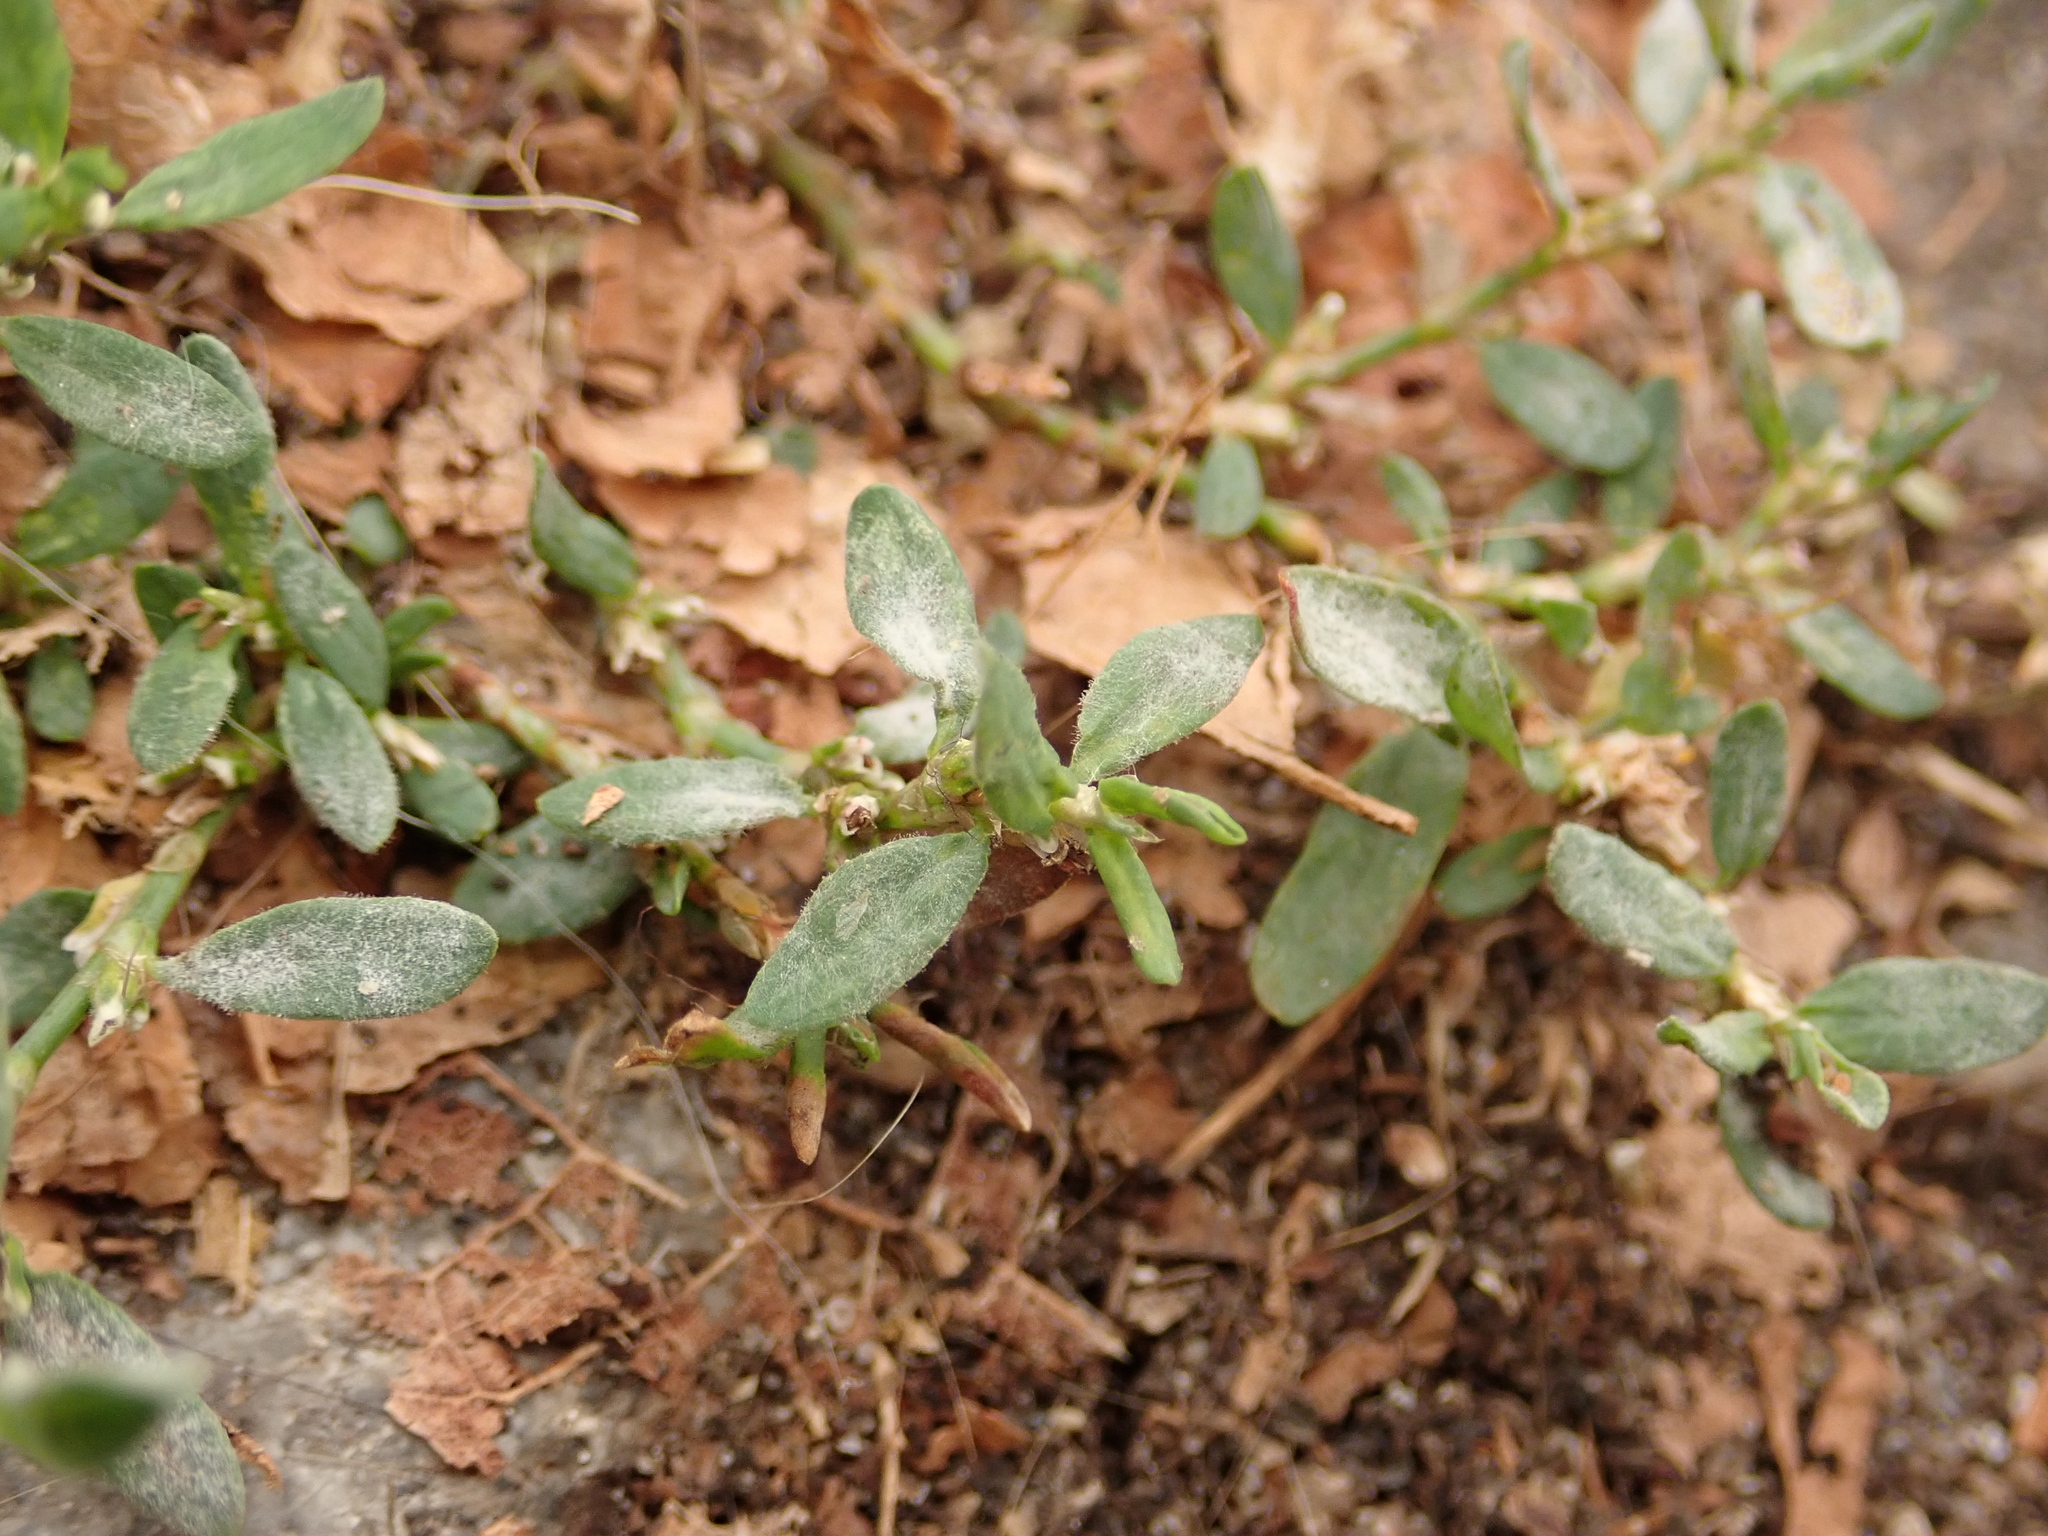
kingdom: Plantae
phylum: Tracheophyta
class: Magnoliopsida
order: Caryophyllales
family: Polygonaceae
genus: Polygonum
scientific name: Polygonum aviculare
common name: Prostrate knotweed
